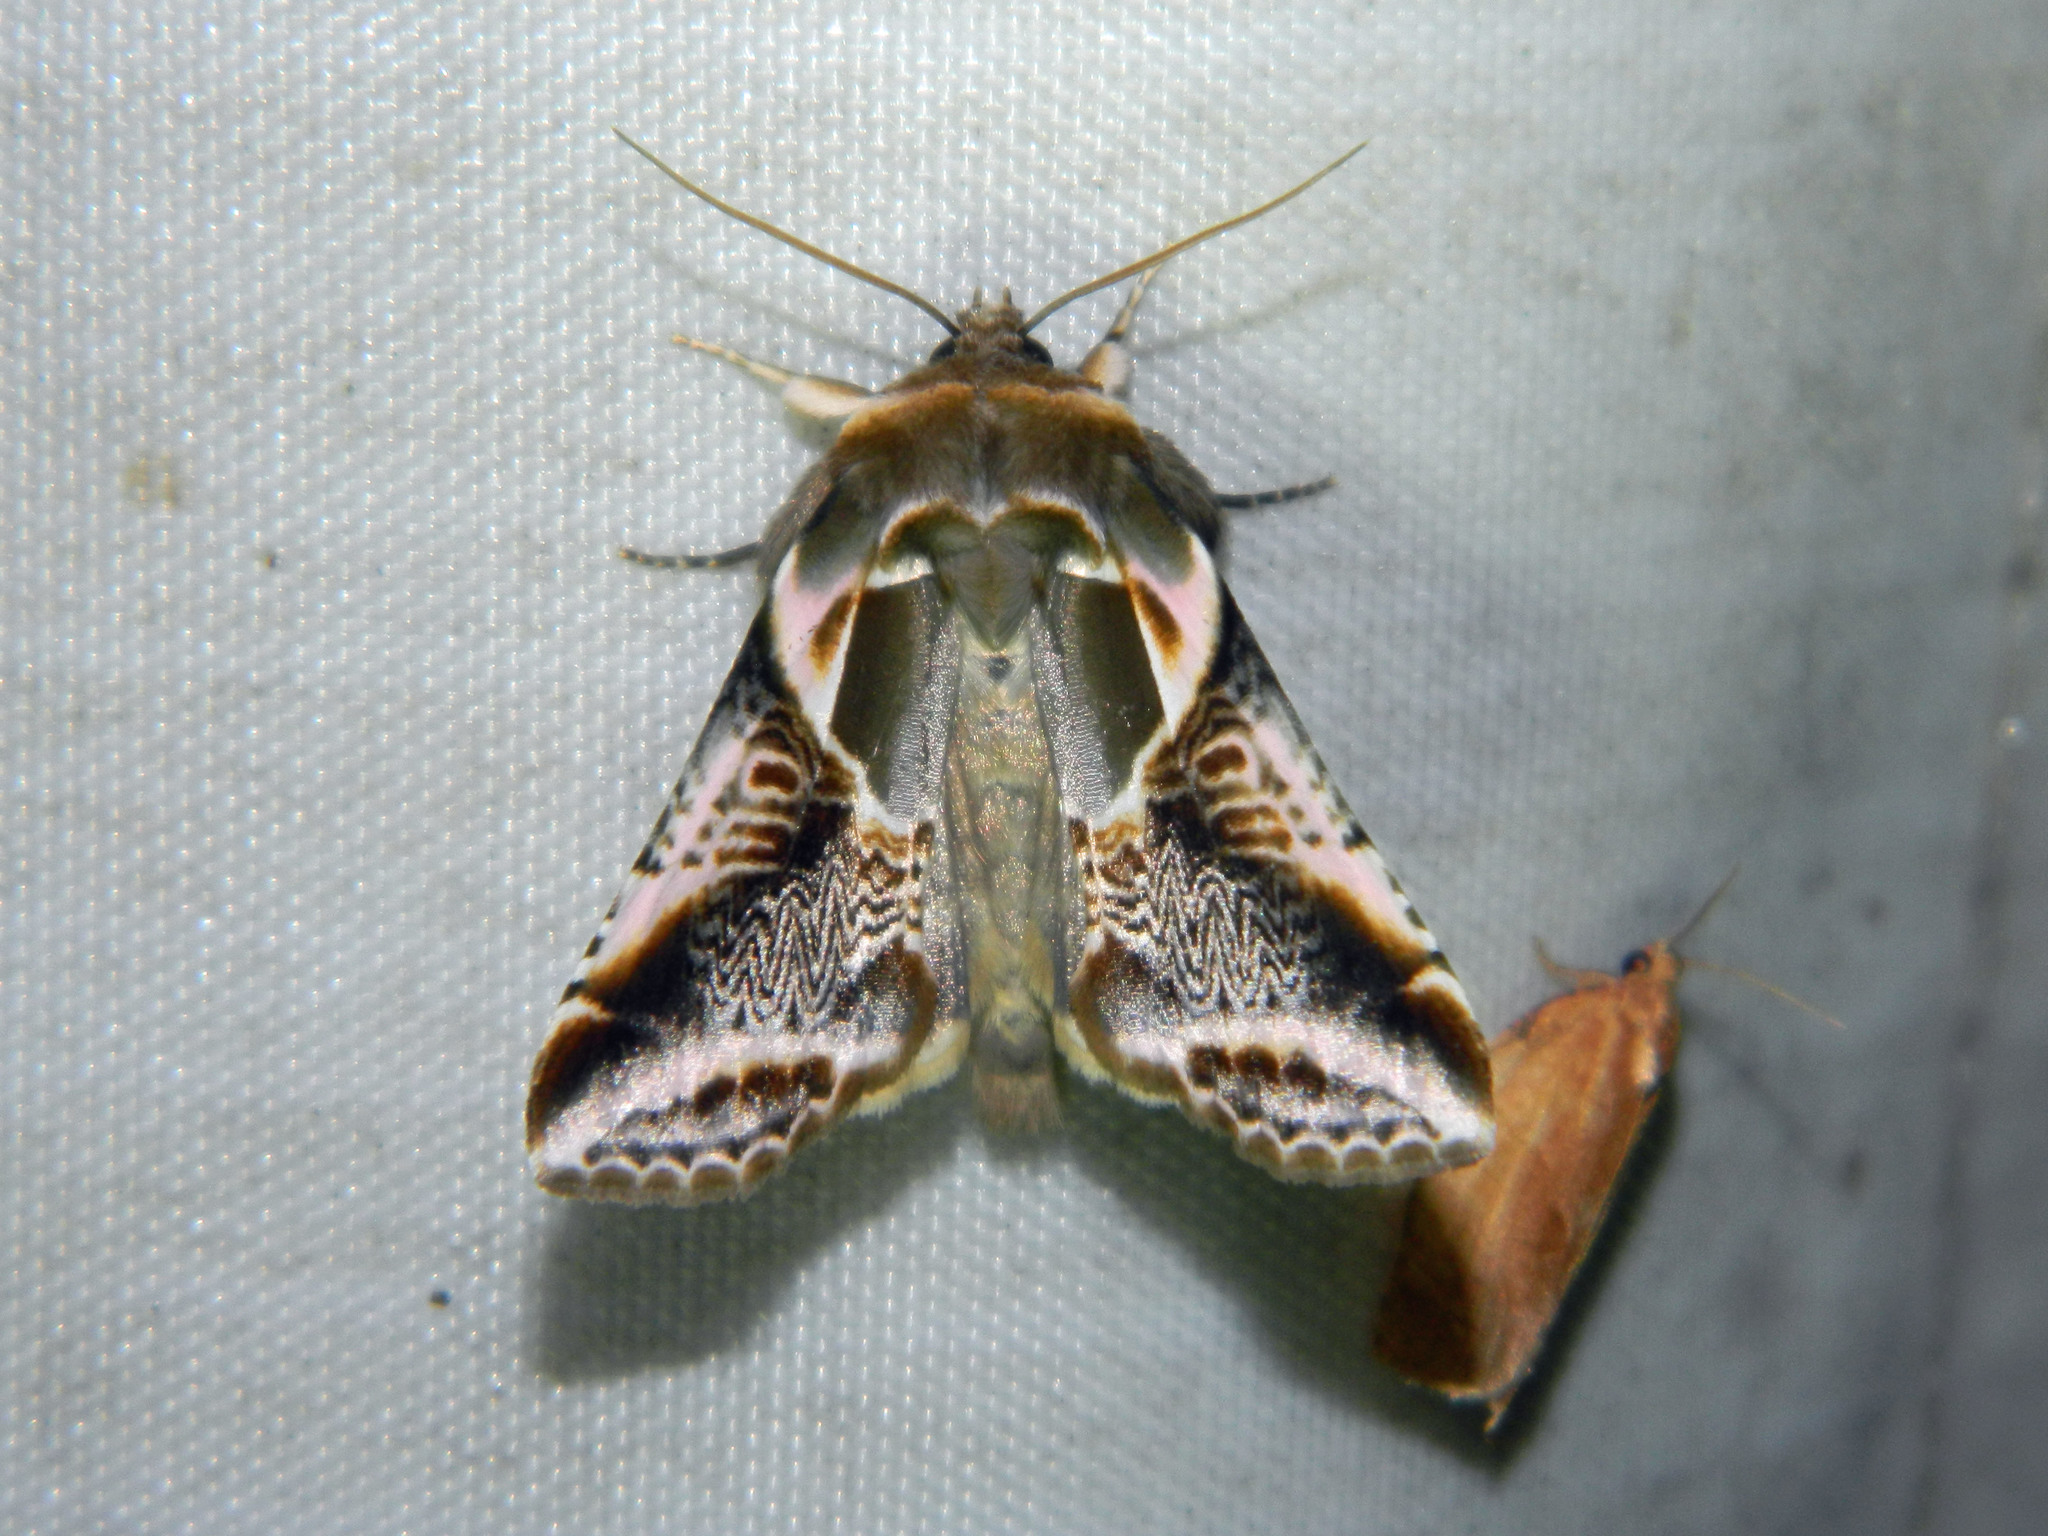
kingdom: Animalia
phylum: Arthropoda
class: Insecta
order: Lepidoptera
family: Drepanidae
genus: Habrosyne
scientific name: Habrosyne scripta
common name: Lettered habrosyne moth
